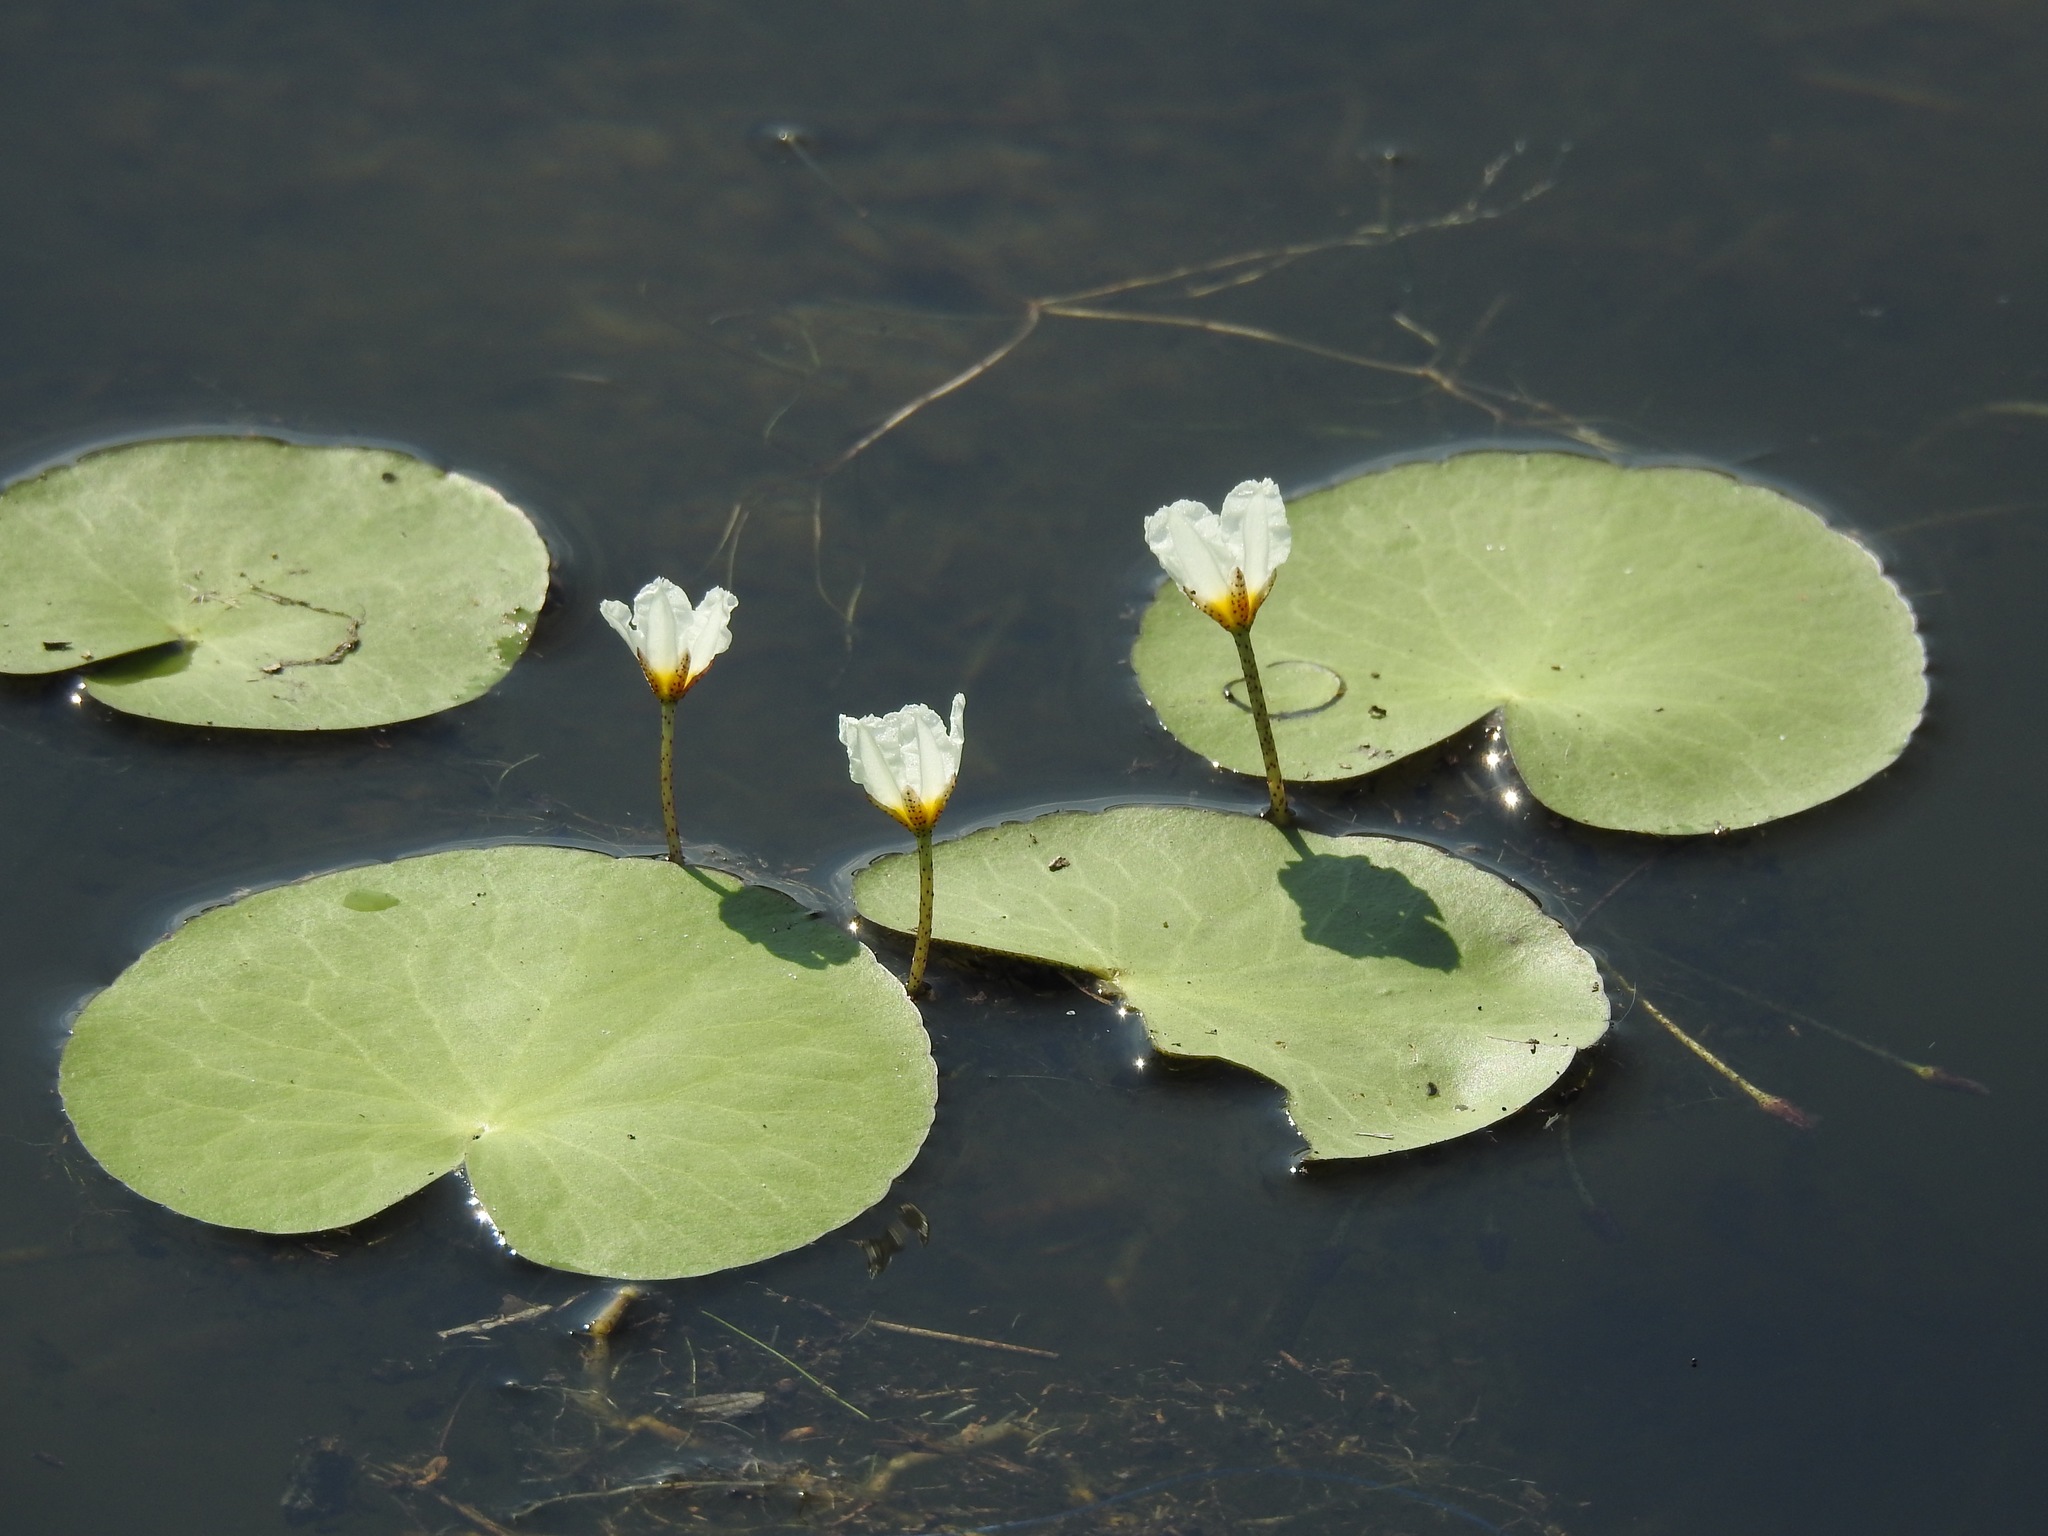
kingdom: Plantae
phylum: Tracheophyta
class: Magnoliopsida
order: Asterales
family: Menyanthaceae
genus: Nymphoides
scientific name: Nymphoides aquatica
